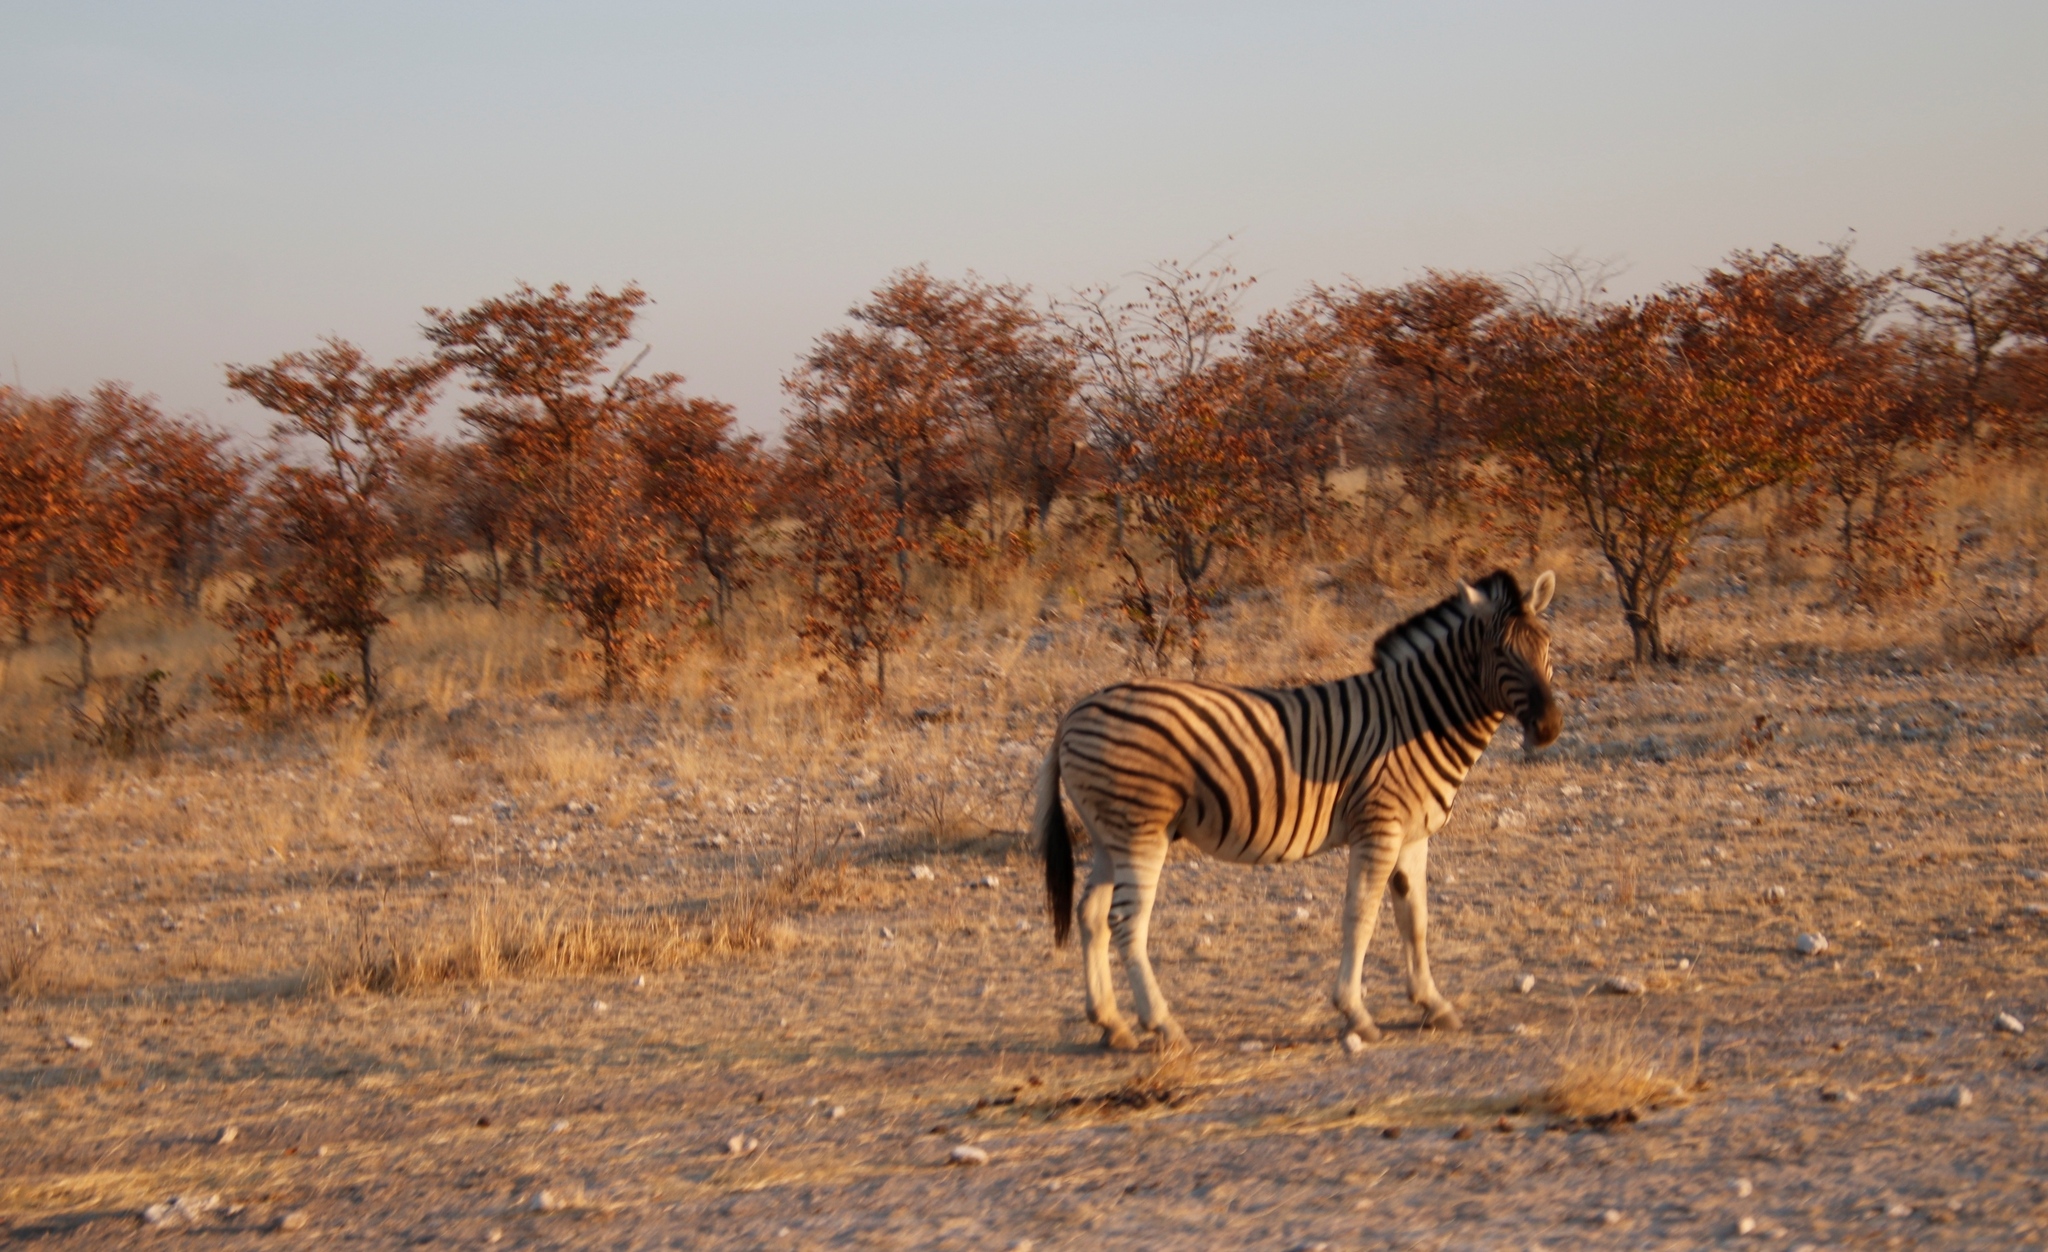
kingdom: Animalia
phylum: Chordata
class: Mammalia
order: Perissodactyla
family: Equidae
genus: Equus
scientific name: Equus quagga
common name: Plains zebra
